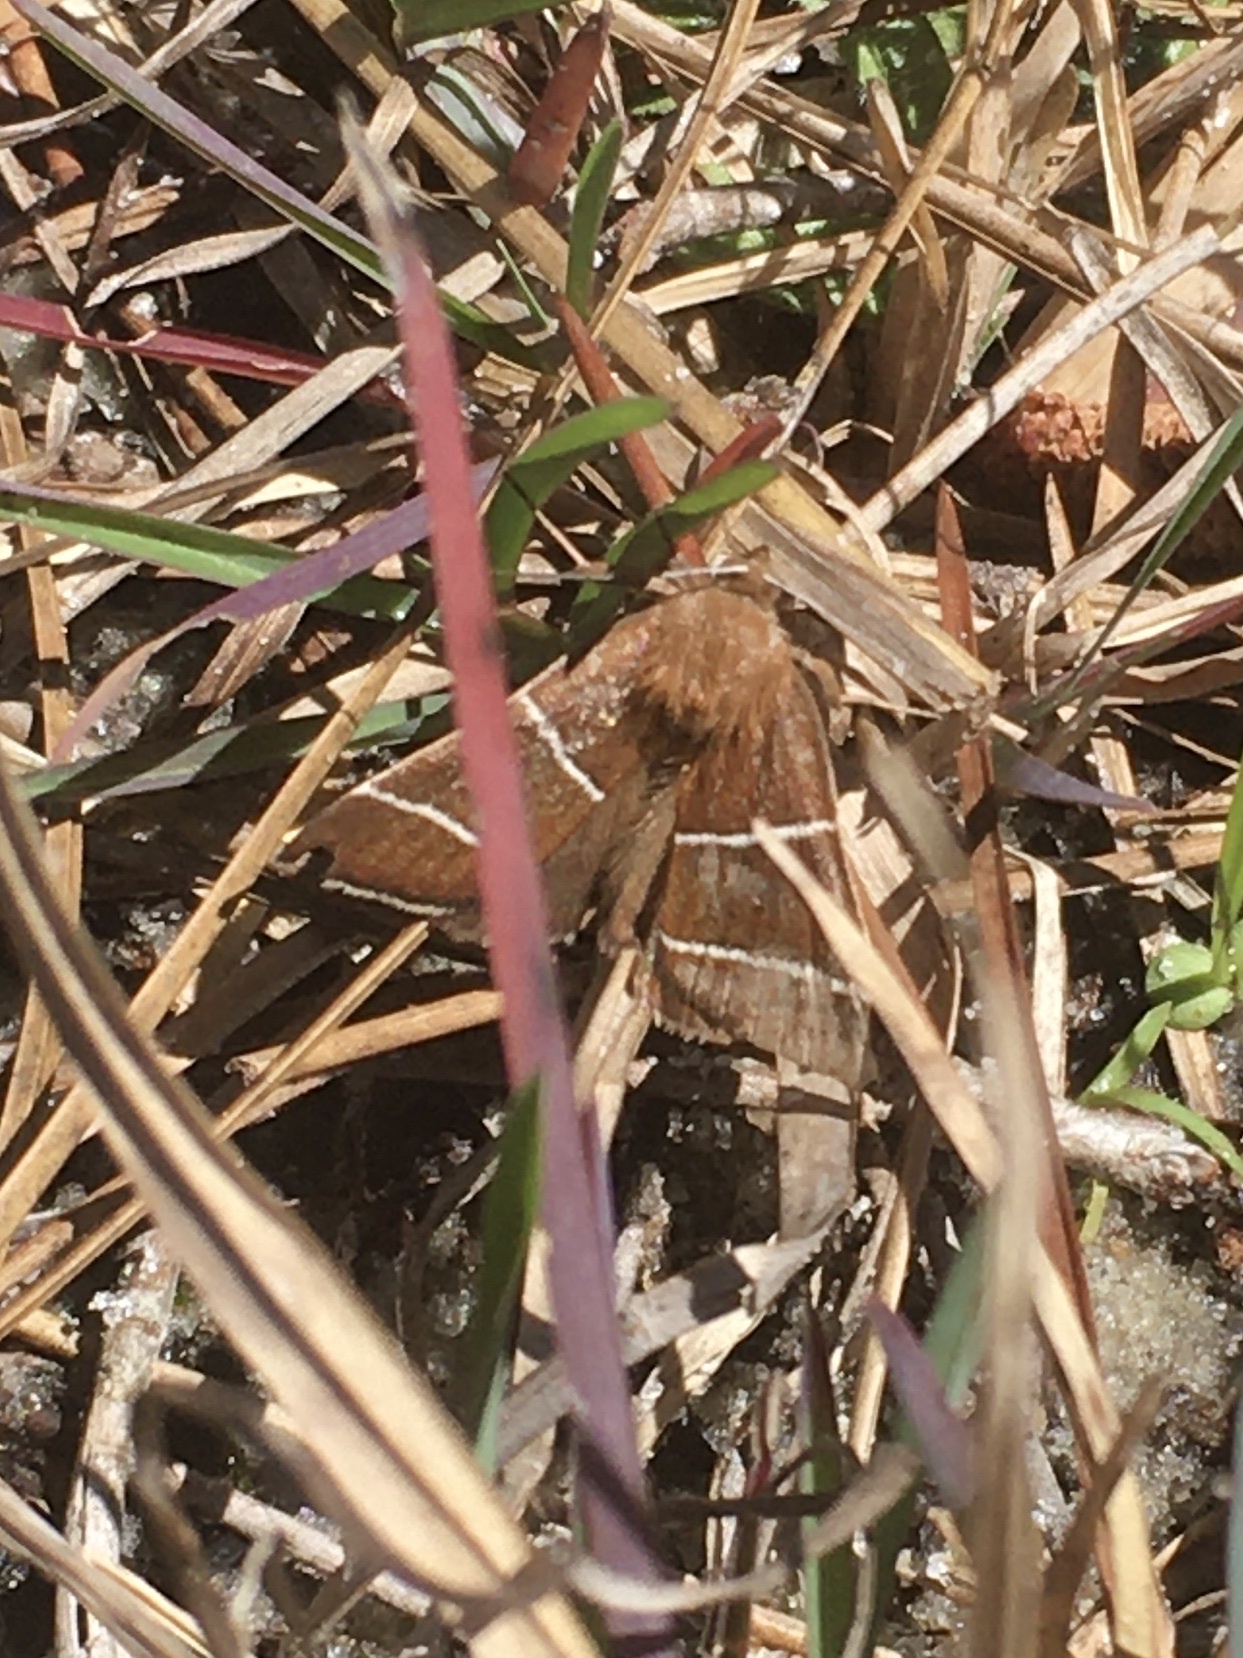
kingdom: Animalia
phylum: Arthropoda
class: Insecta
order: Lepidoptera
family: Erebidae
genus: Argyrostrotis
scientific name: Argyrostrotis quadrifilaris
